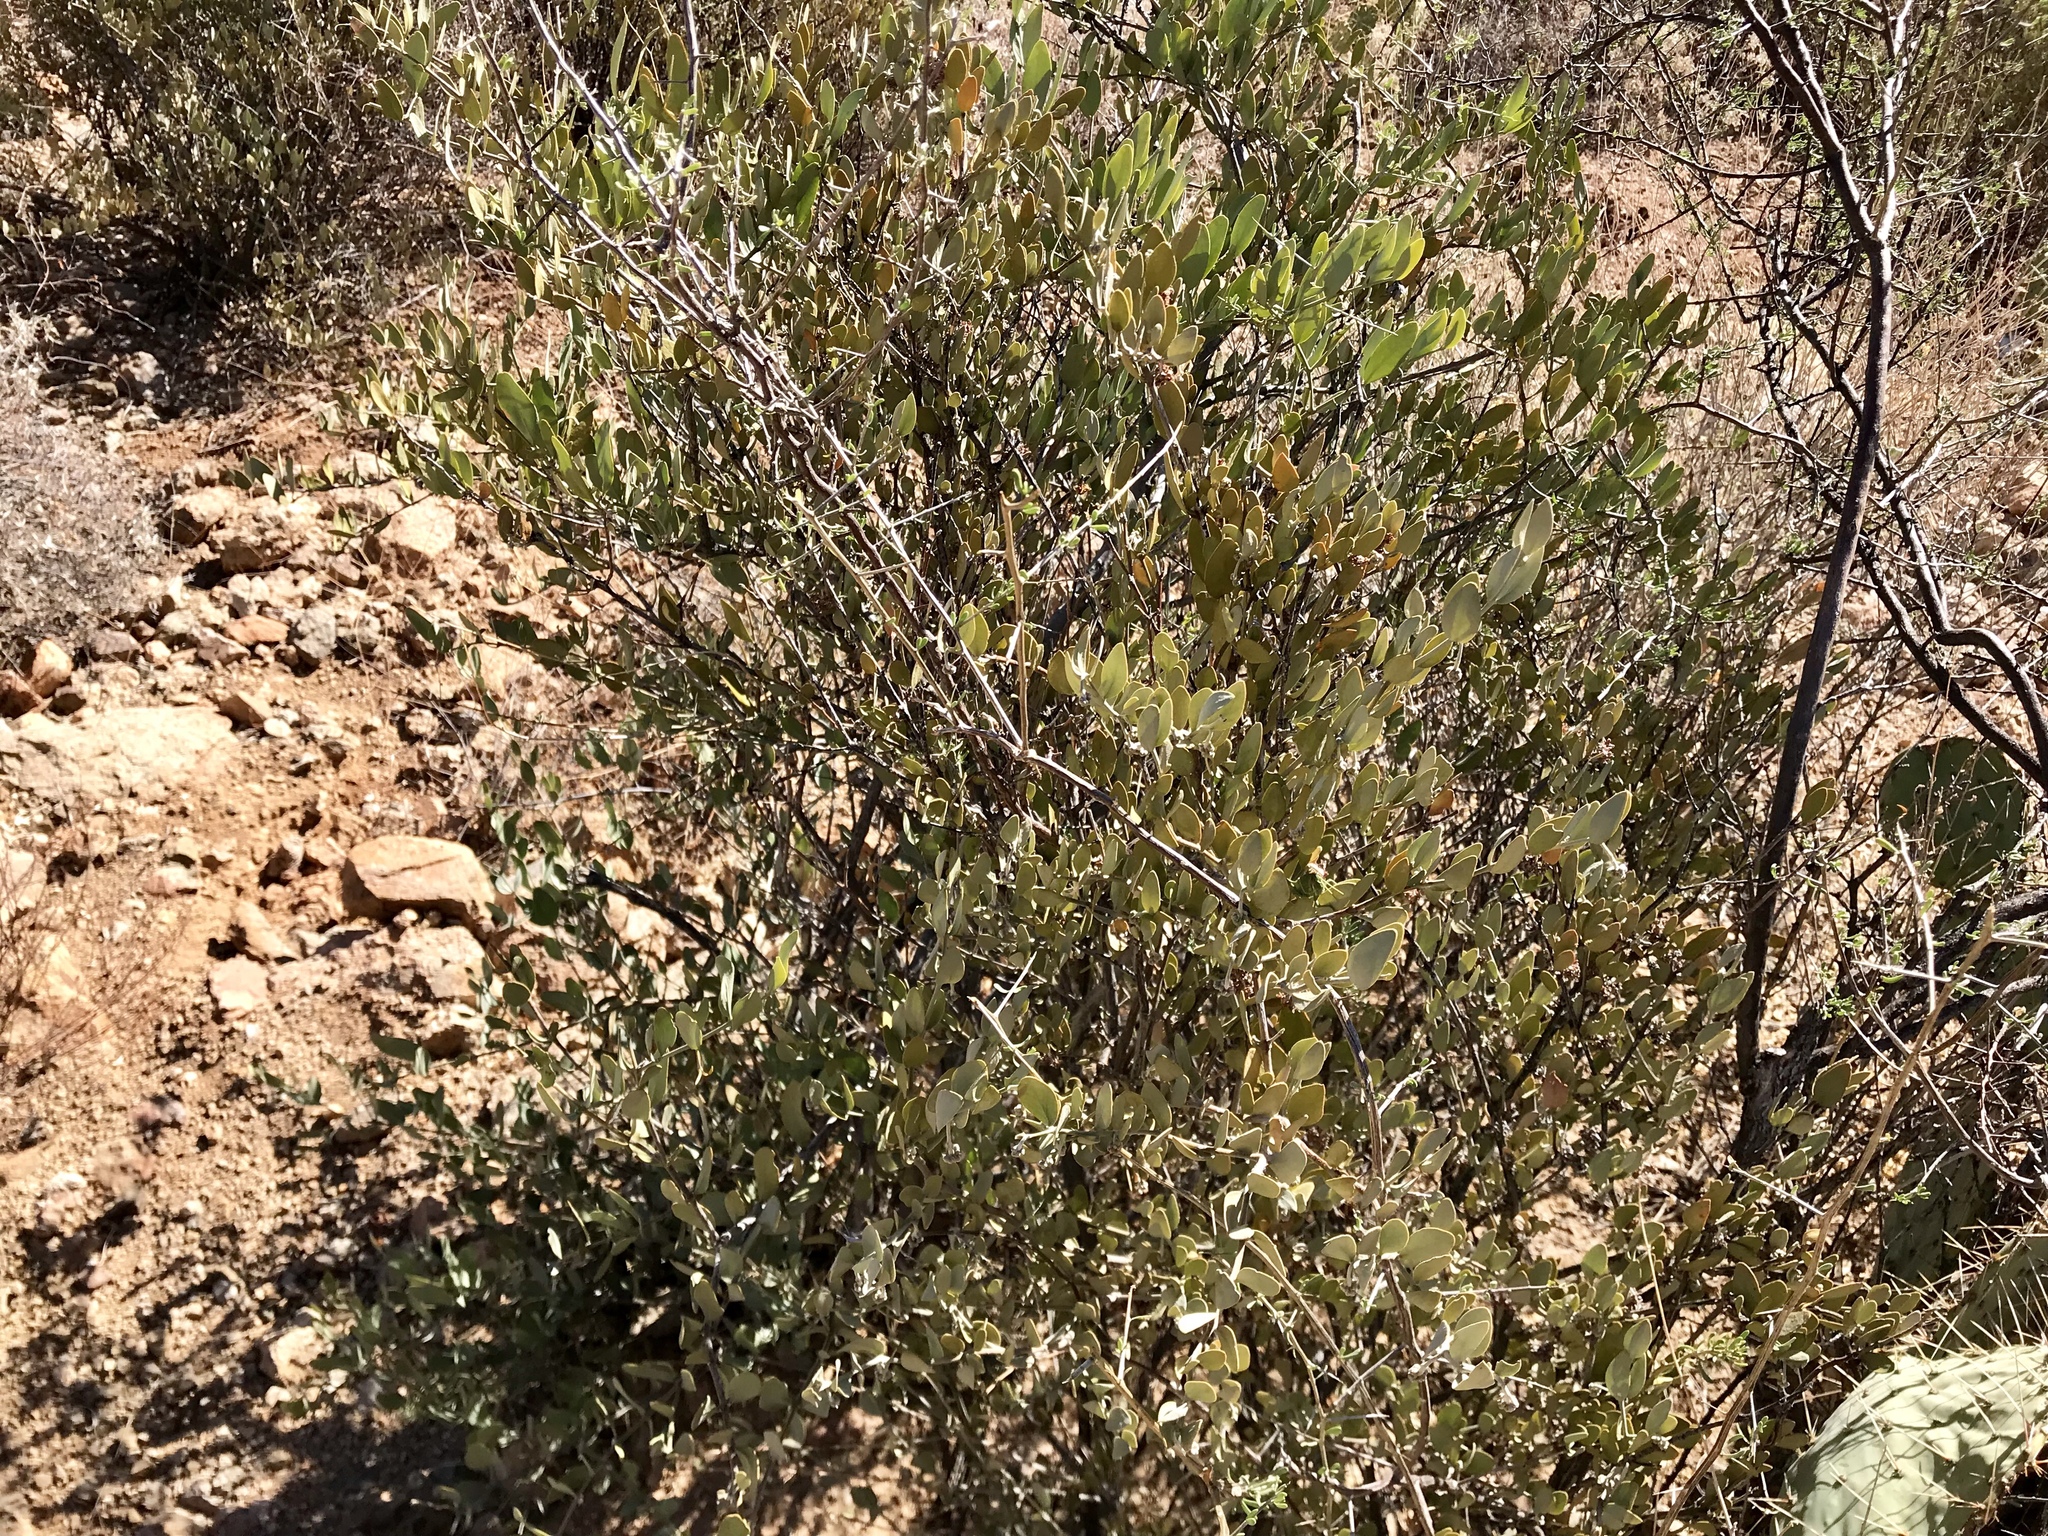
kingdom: Plantae
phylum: Tracheophyta
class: Magnoliopsida
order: Caryophyllales
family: Simmondsiaceae
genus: Simmondsia
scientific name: Simmondsia chinensis
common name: Jojoba
